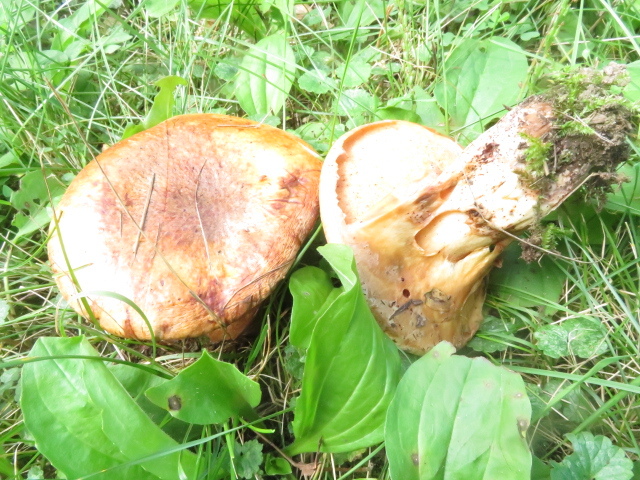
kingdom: Fungi
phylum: Basidiomycota
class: Agaricomycetes
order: Boletales
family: Paxillaceae
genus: Paragyrodon
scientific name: Paragyrodon sphaerosporus
